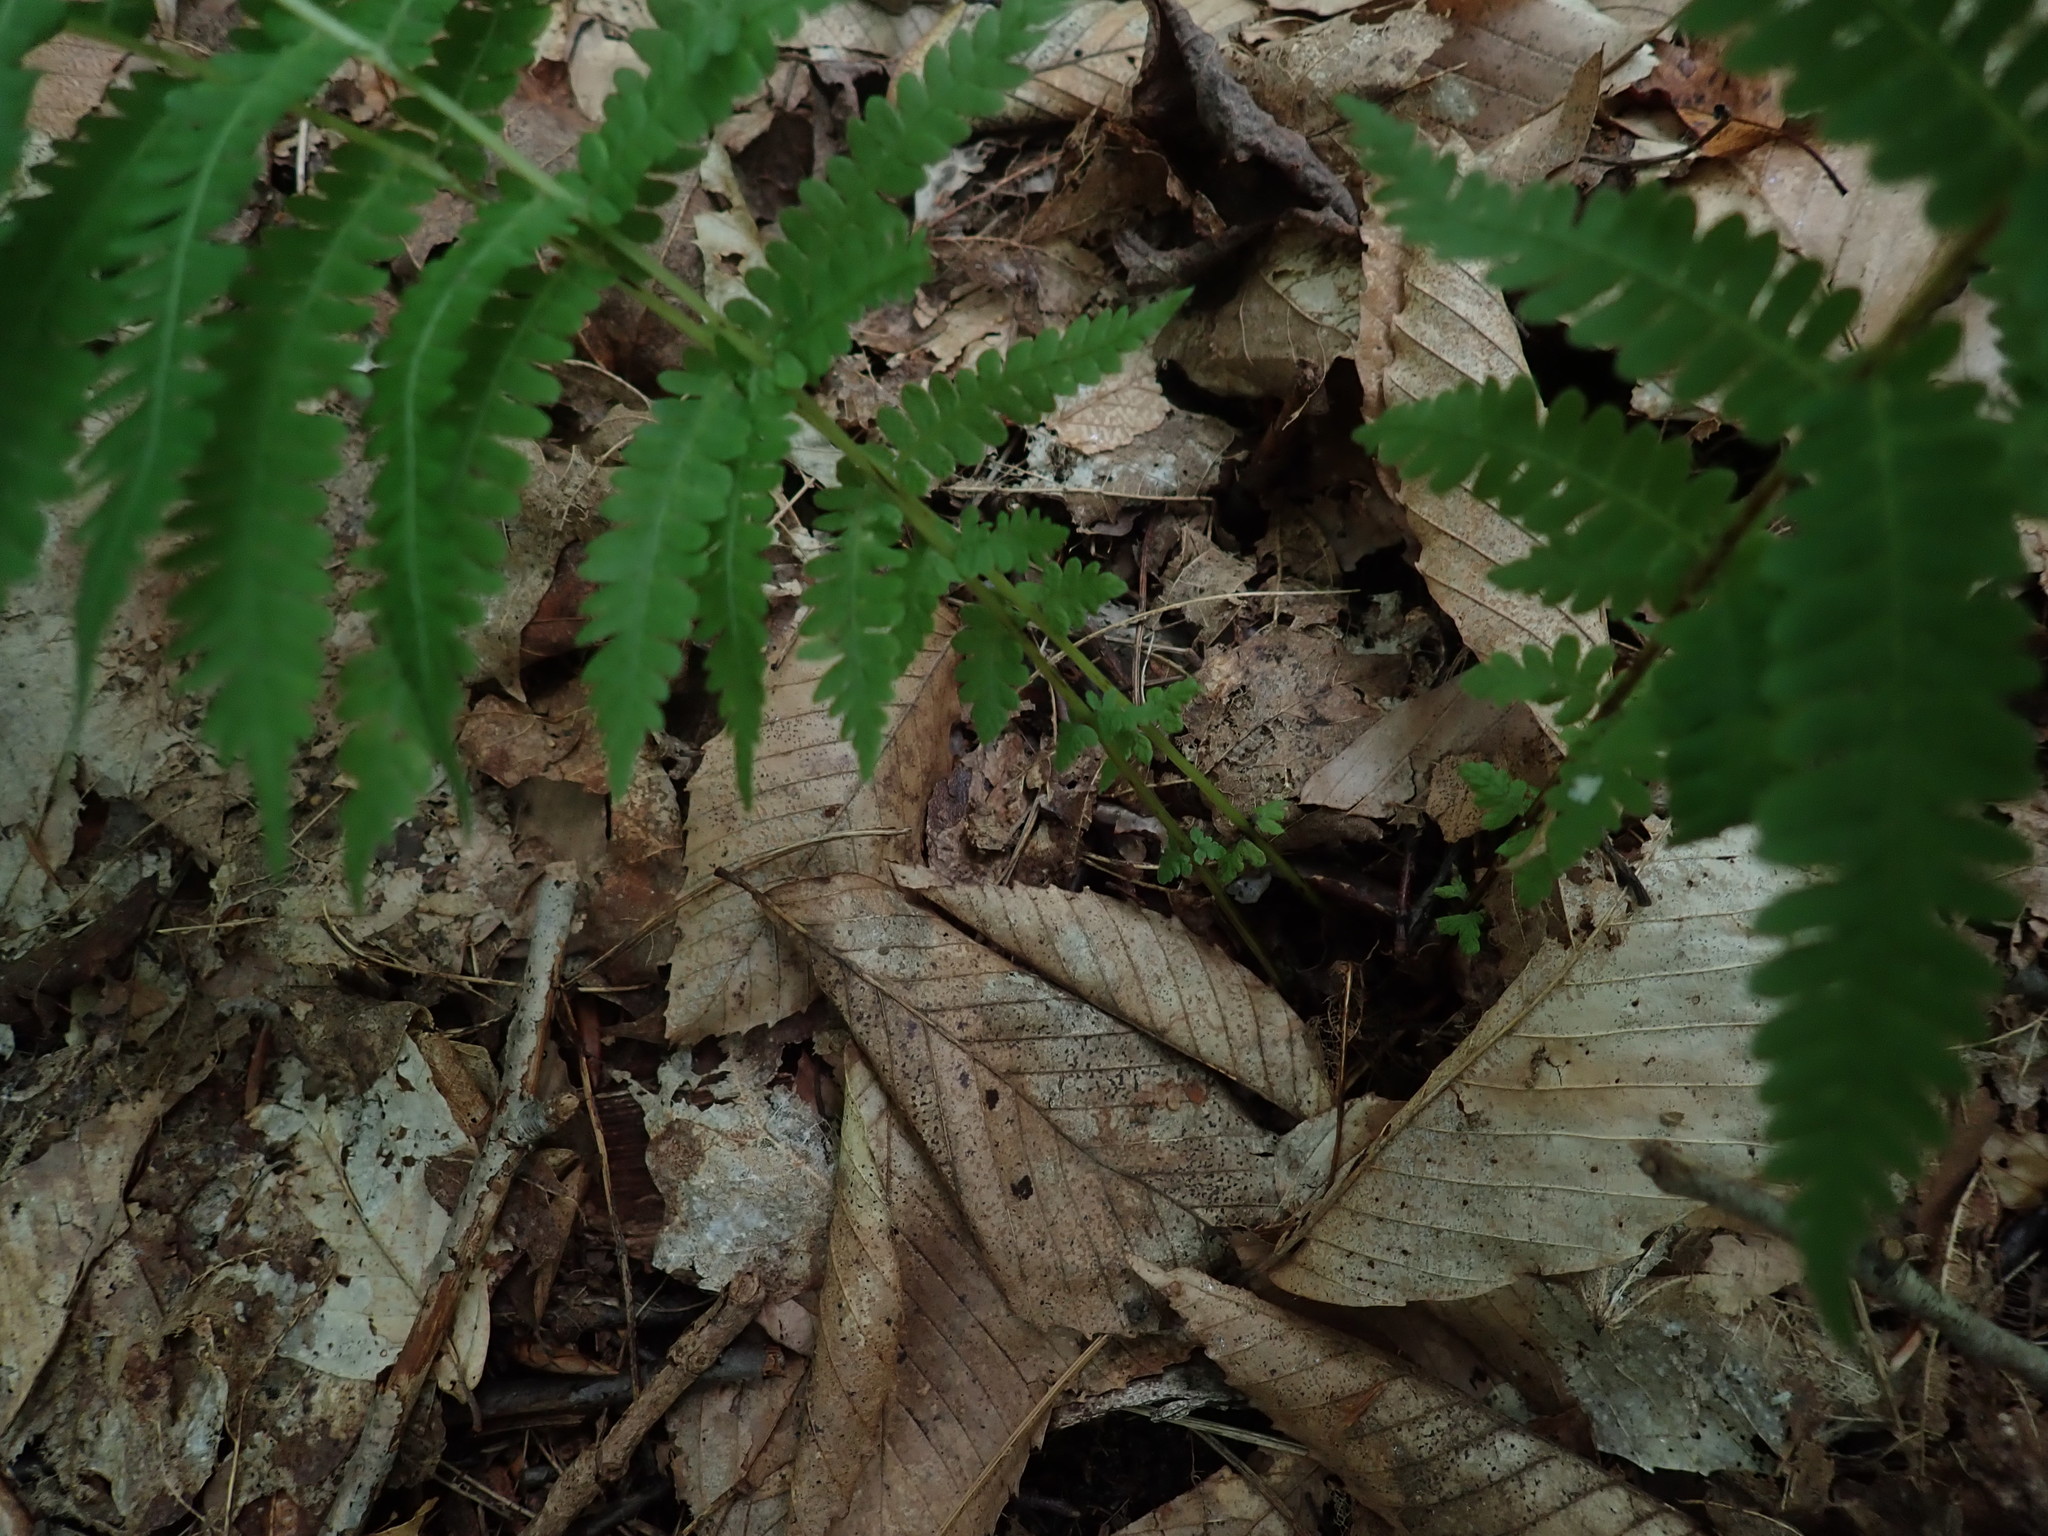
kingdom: Plantae
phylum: Tracheophyta
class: Polypodiopsida
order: Polypodiales
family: Thelypteridaceae
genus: Amauropelta
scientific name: Amauropelta noveboracensis
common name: New york fern
